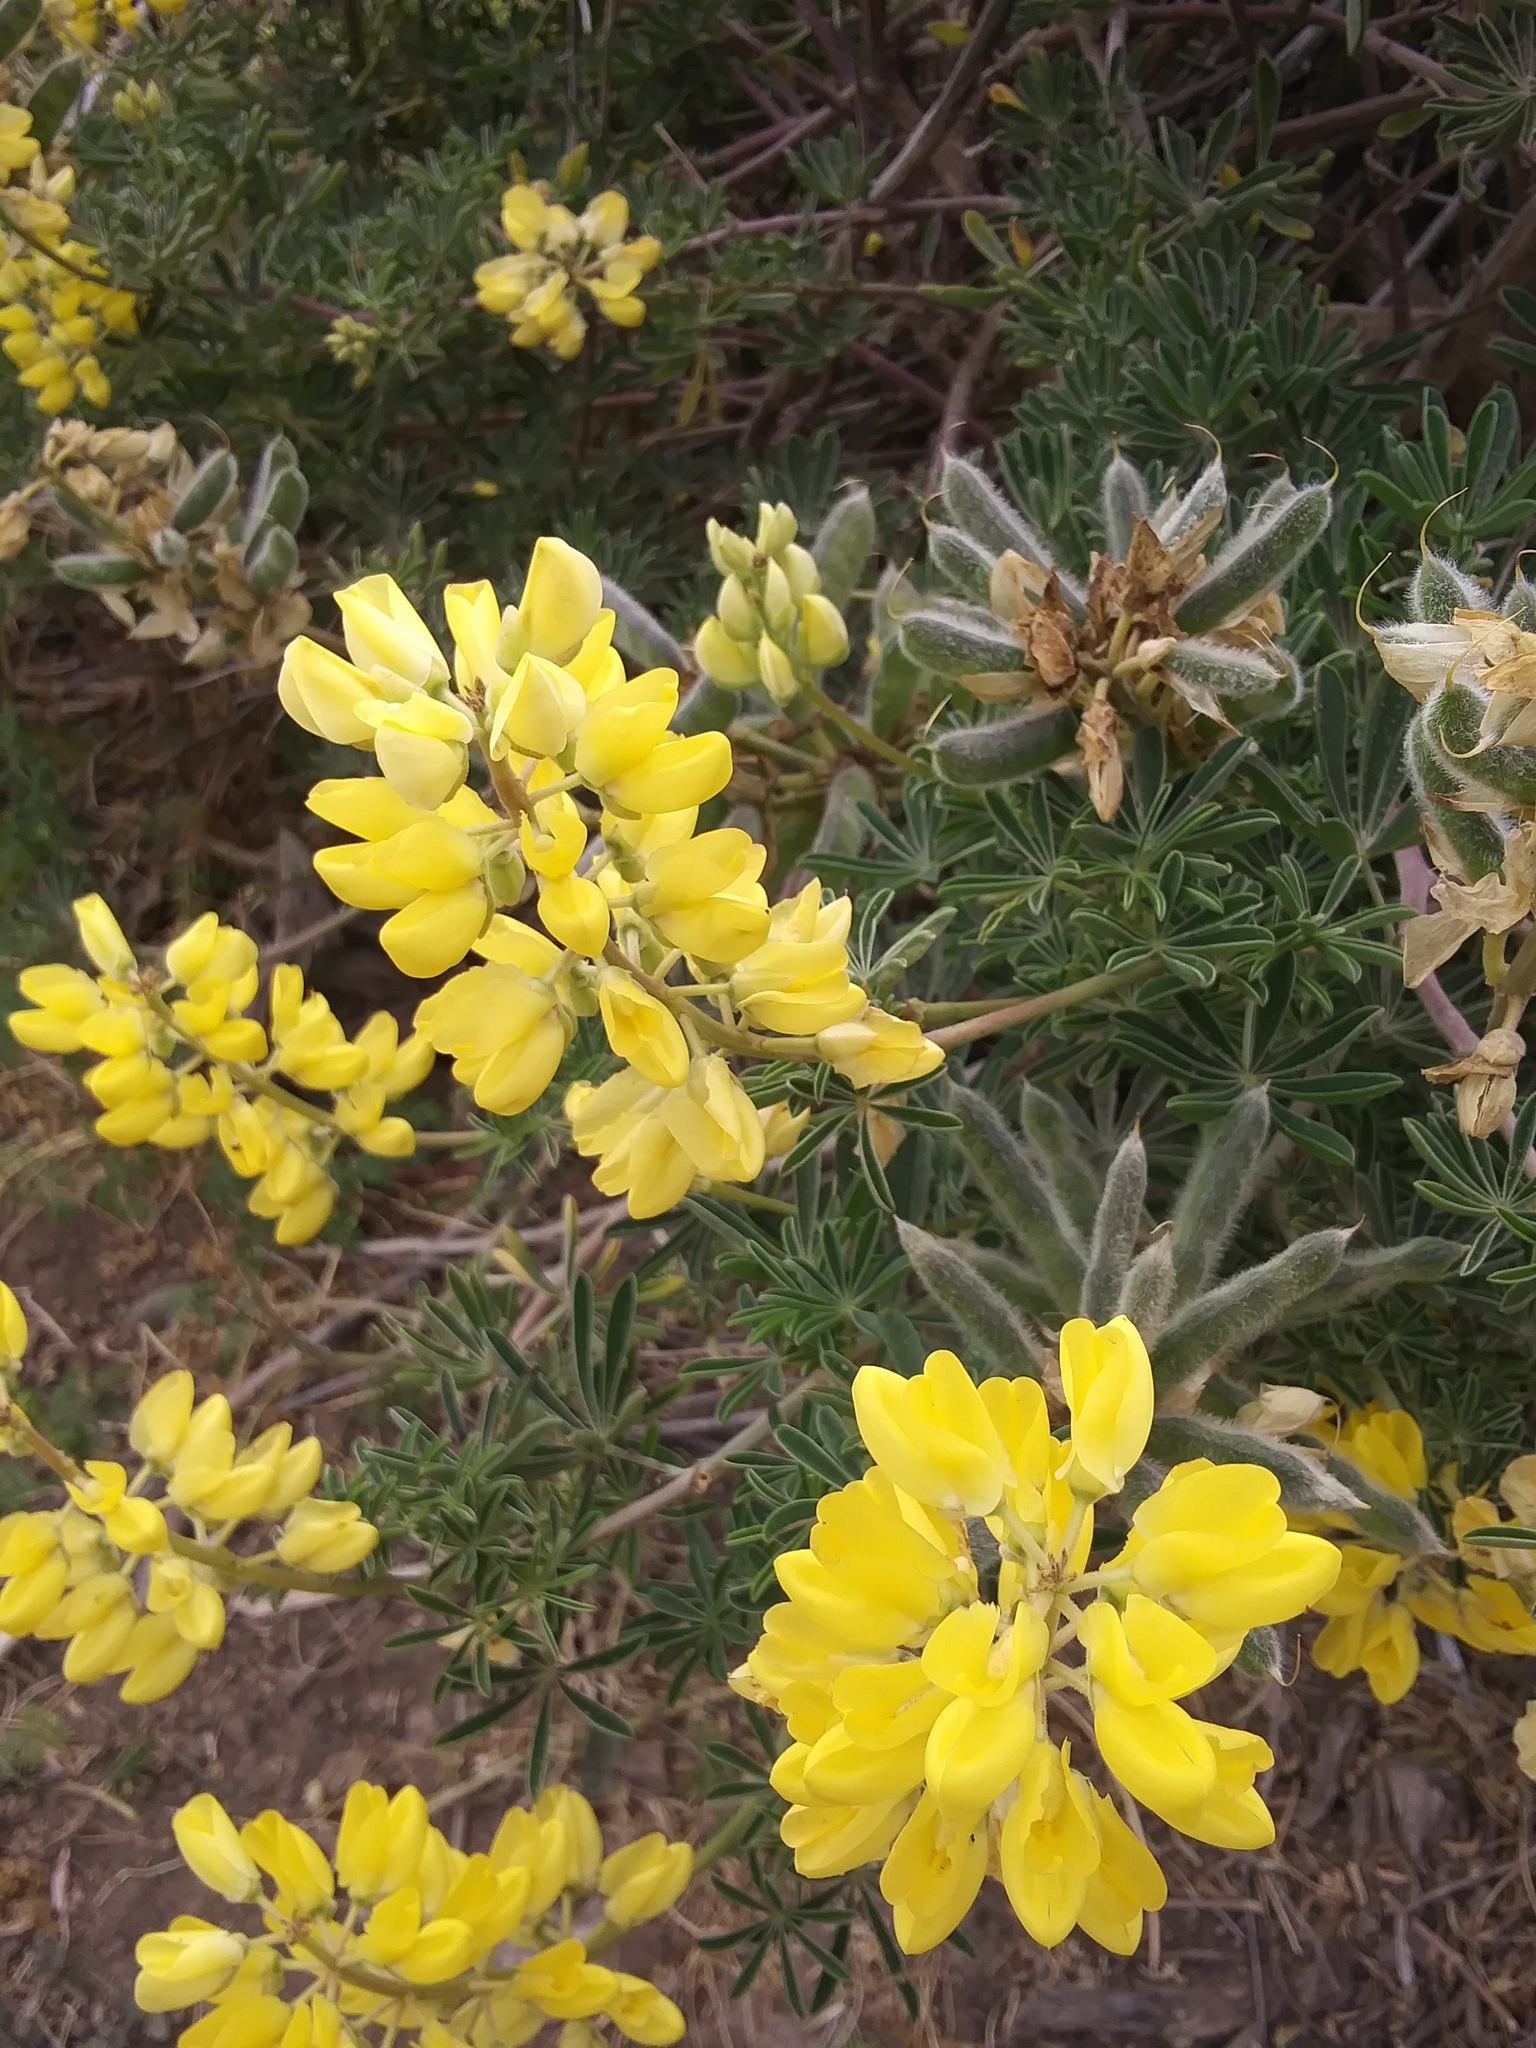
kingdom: Plantae
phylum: Tracheophyta
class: Magnoliopsida
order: Fabales
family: Fabaceae
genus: Lupinus
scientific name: Lupinus arboreus
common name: Yellow bush lupine
